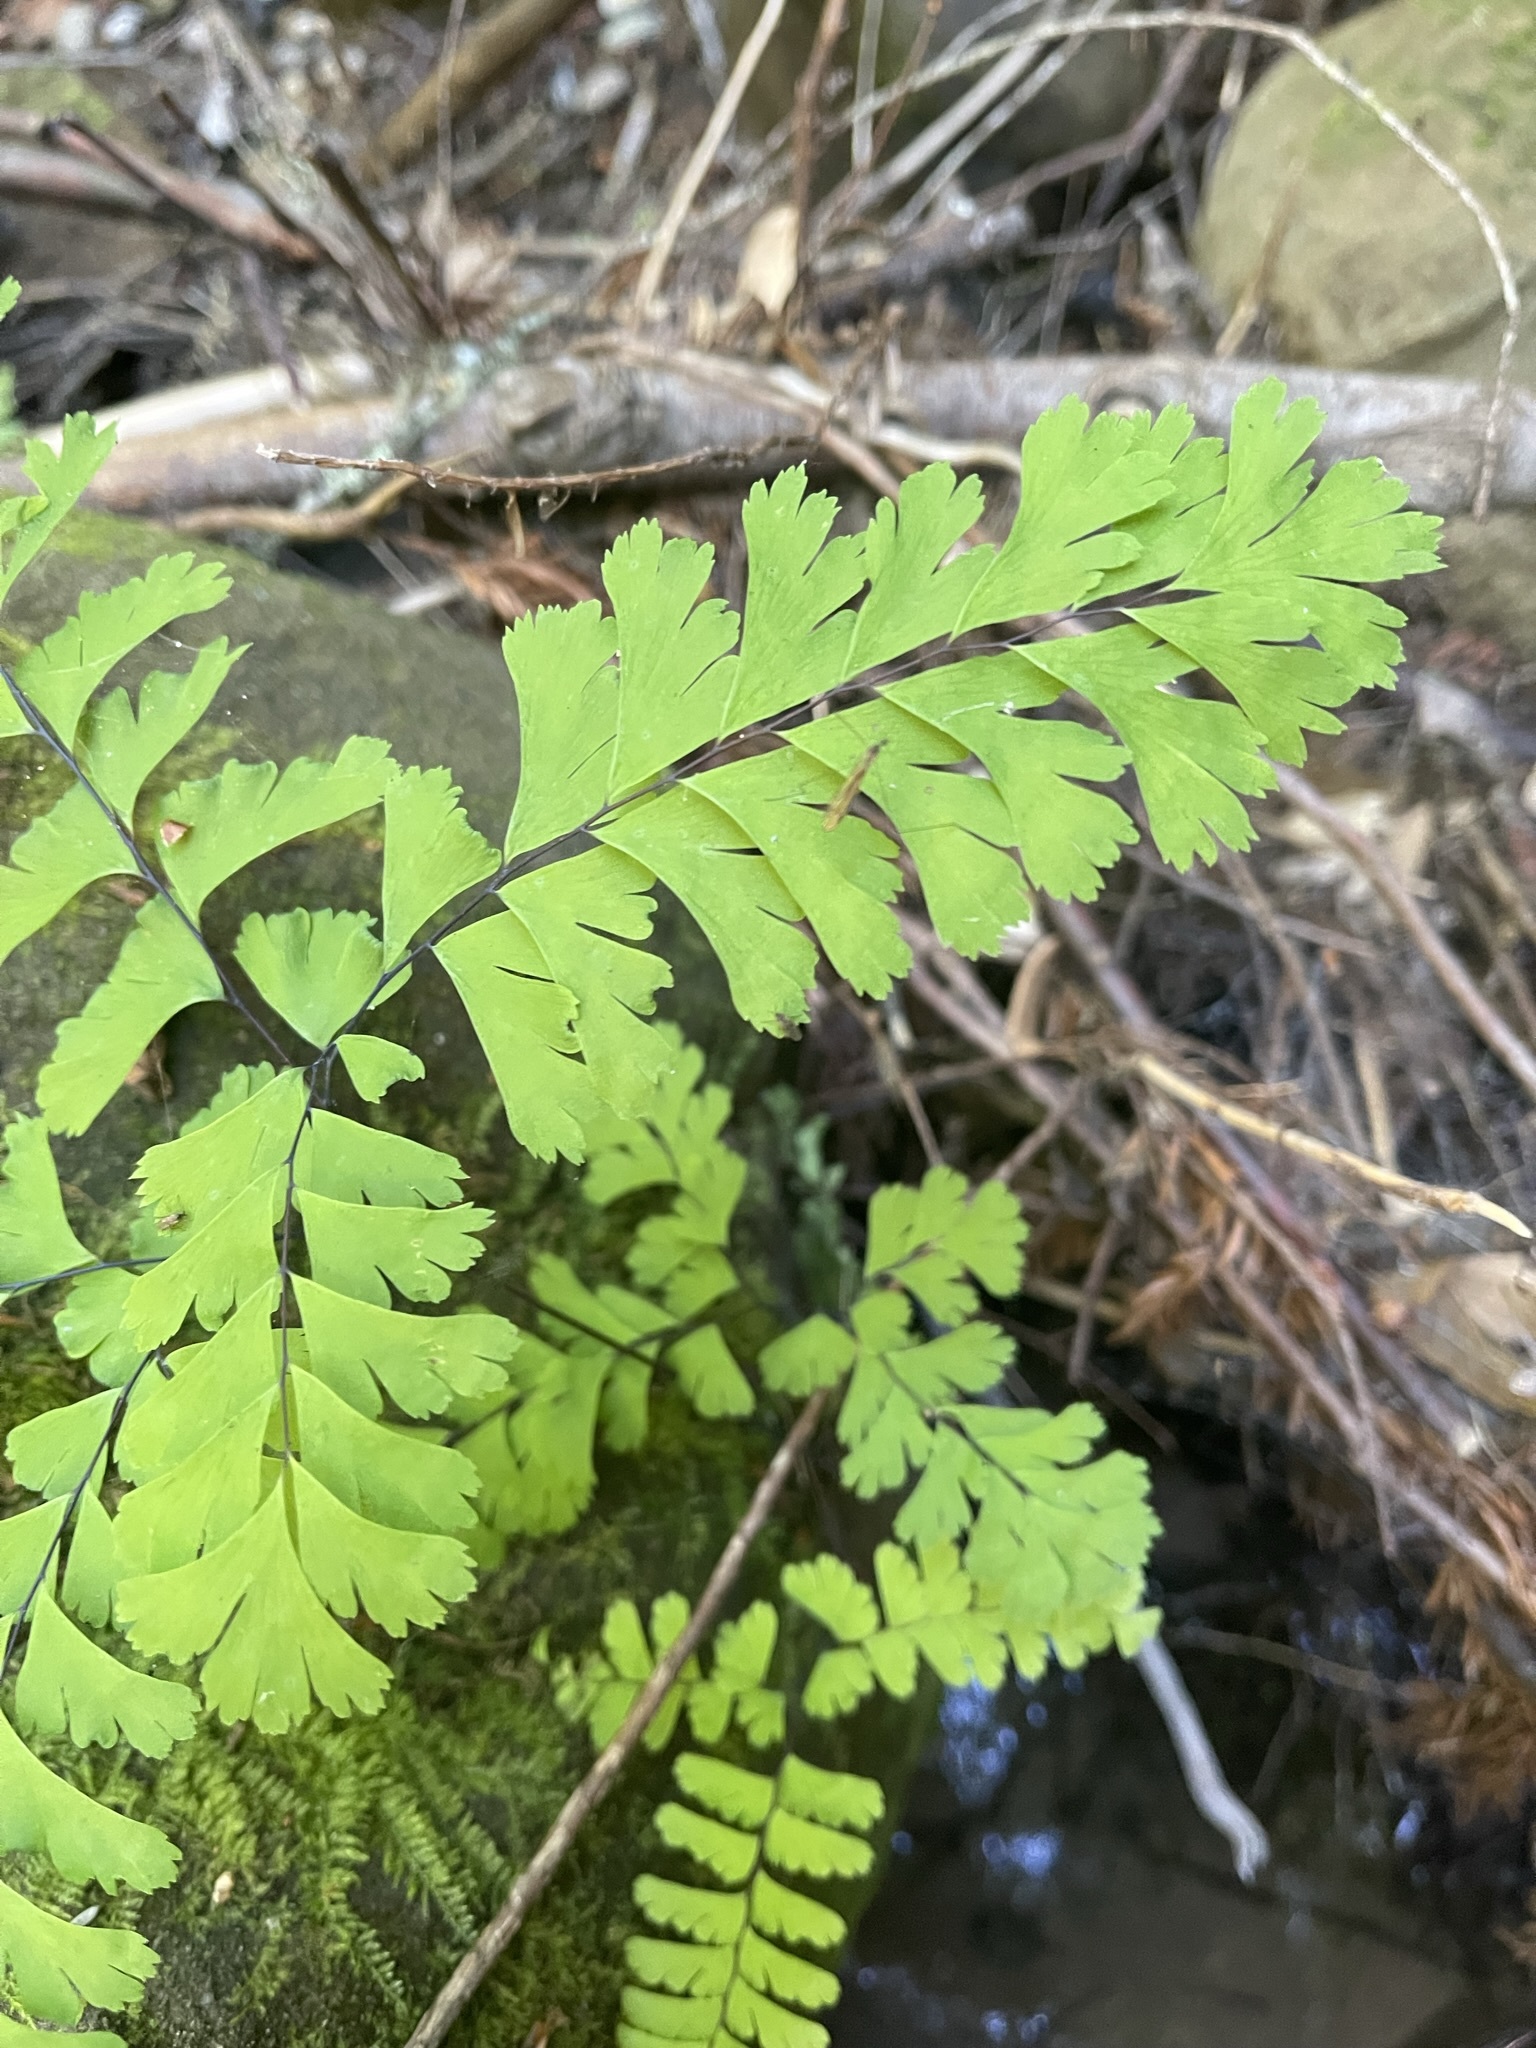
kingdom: Plantae
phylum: Tracheophyta
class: Polypodiopsida
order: Polypodiales
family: Pteridaceae
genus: Adiantum
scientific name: Adiantum aleuticum
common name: Aleutian maidenhair fern
